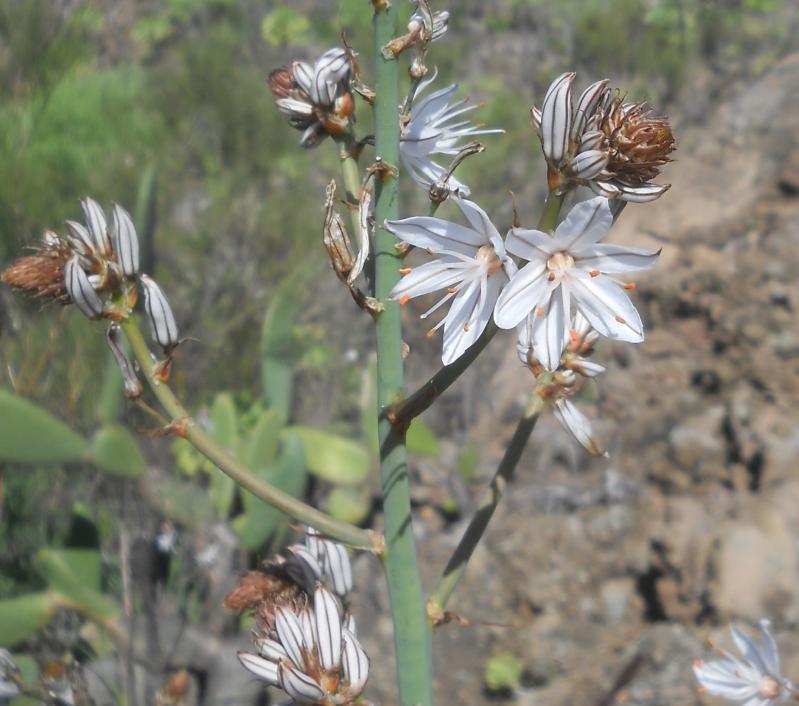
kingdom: Plantae
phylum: Tracheophyta
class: Liliopsida
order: Asparagales
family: Asphodelaceae
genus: Asphodelus
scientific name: Asphodelus ramosus
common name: Silverrod
